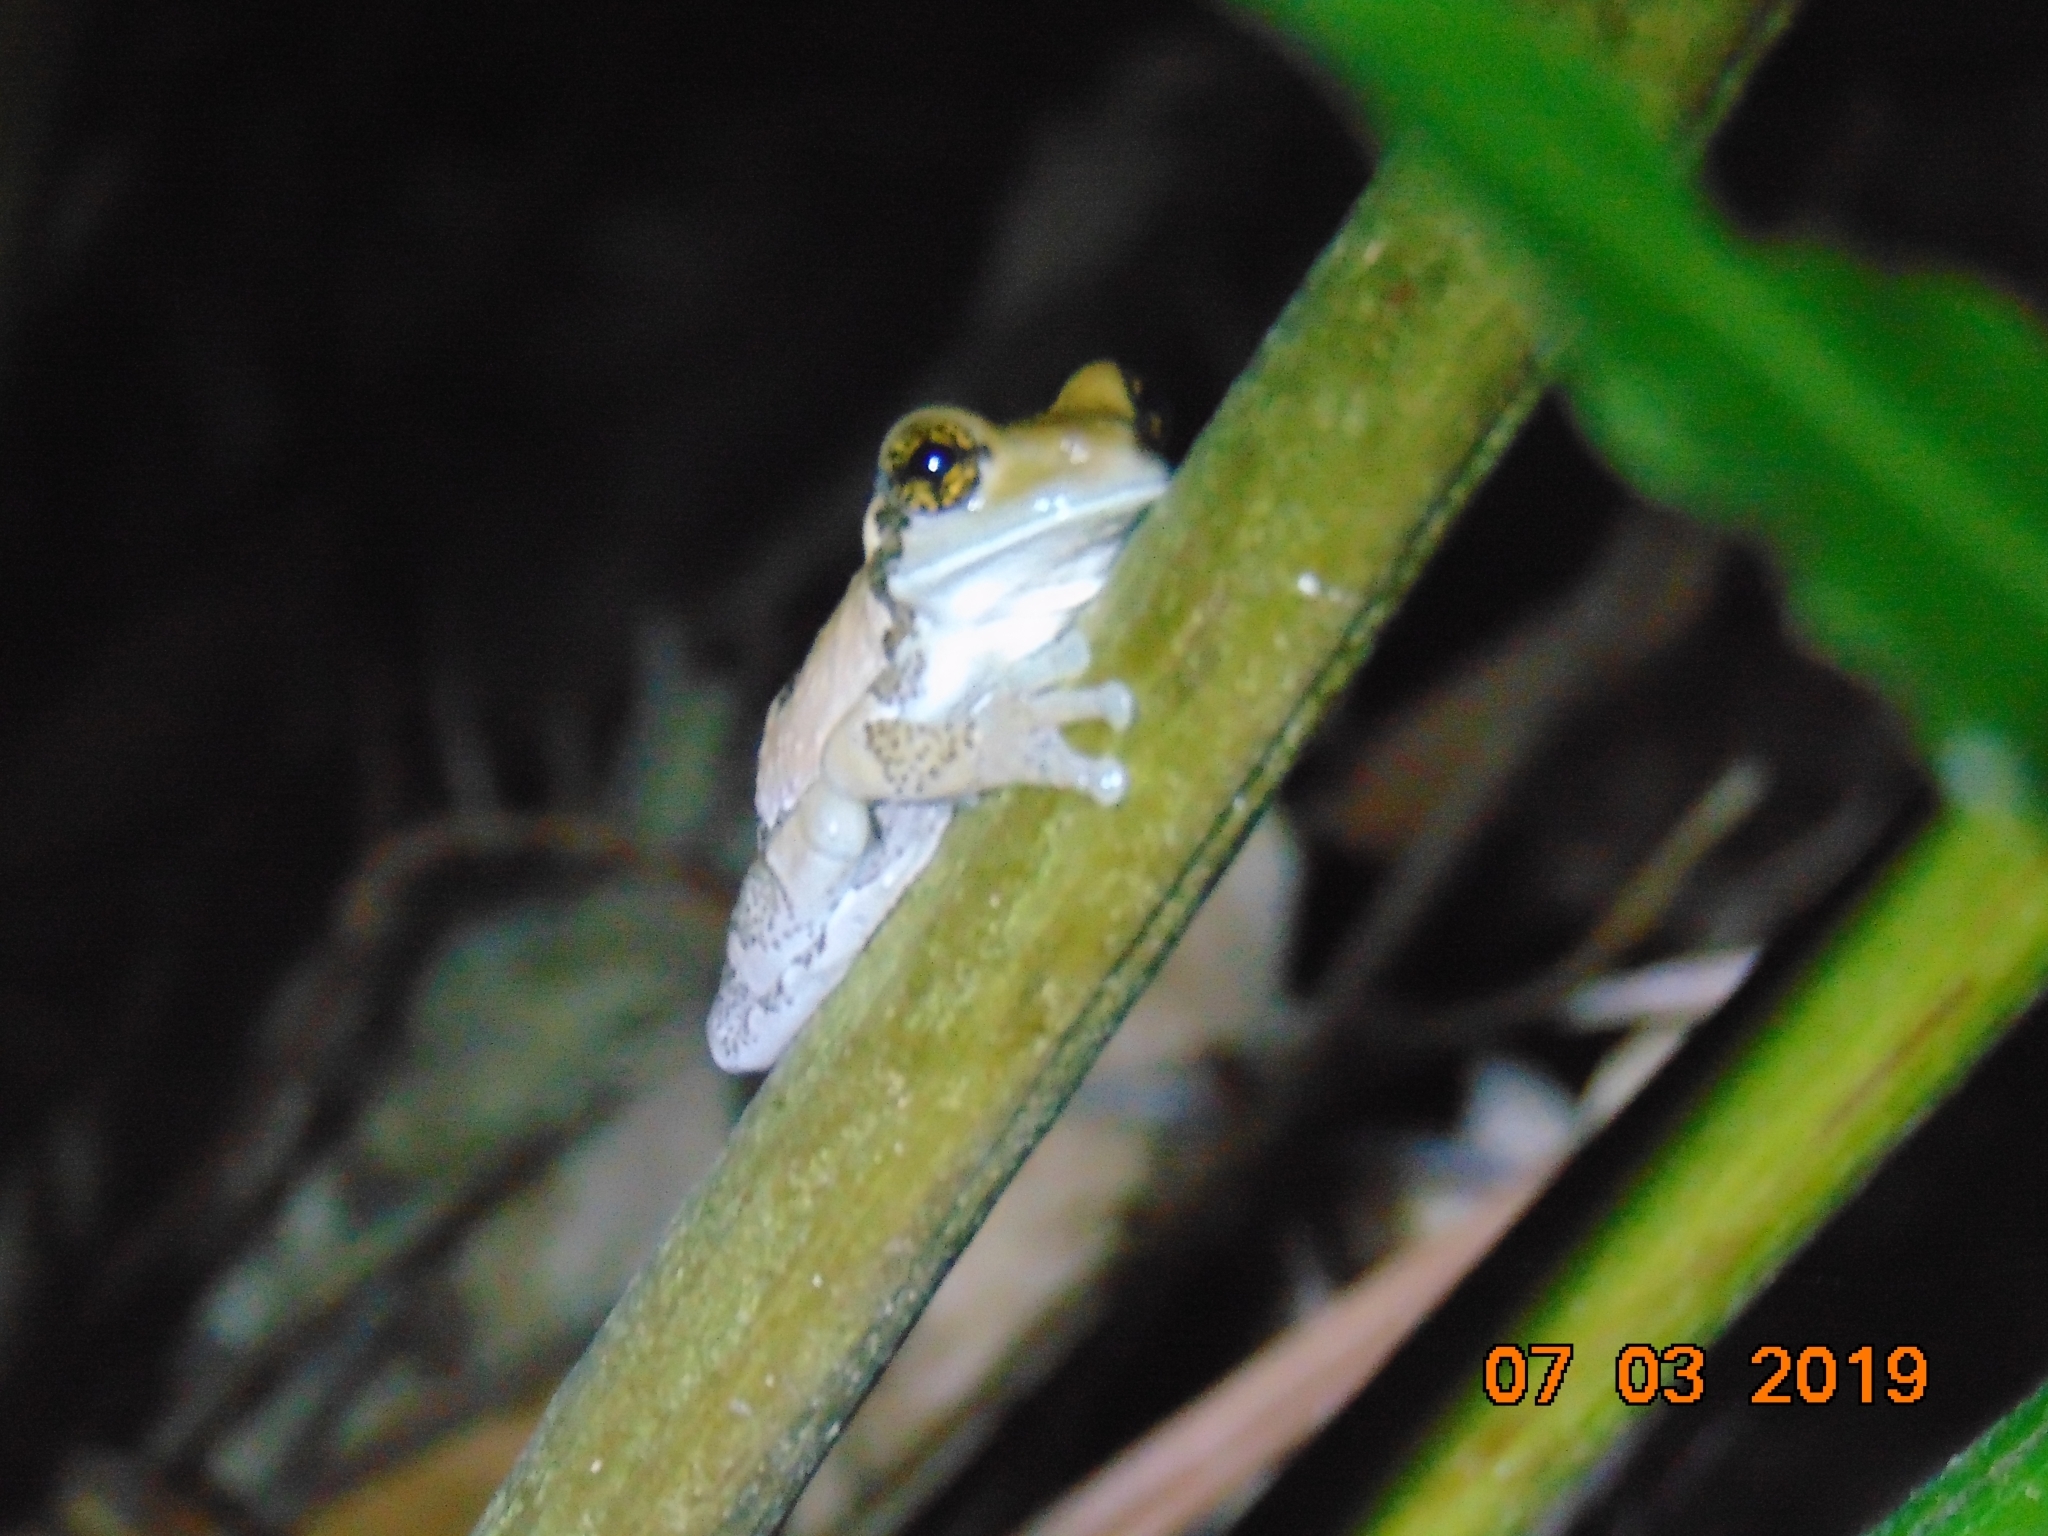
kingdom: Animalia
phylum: Chordata
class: Amphibia
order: Anura
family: Hylidae
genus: Trachycephalus
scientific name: Trachycephalus vermiculatus
